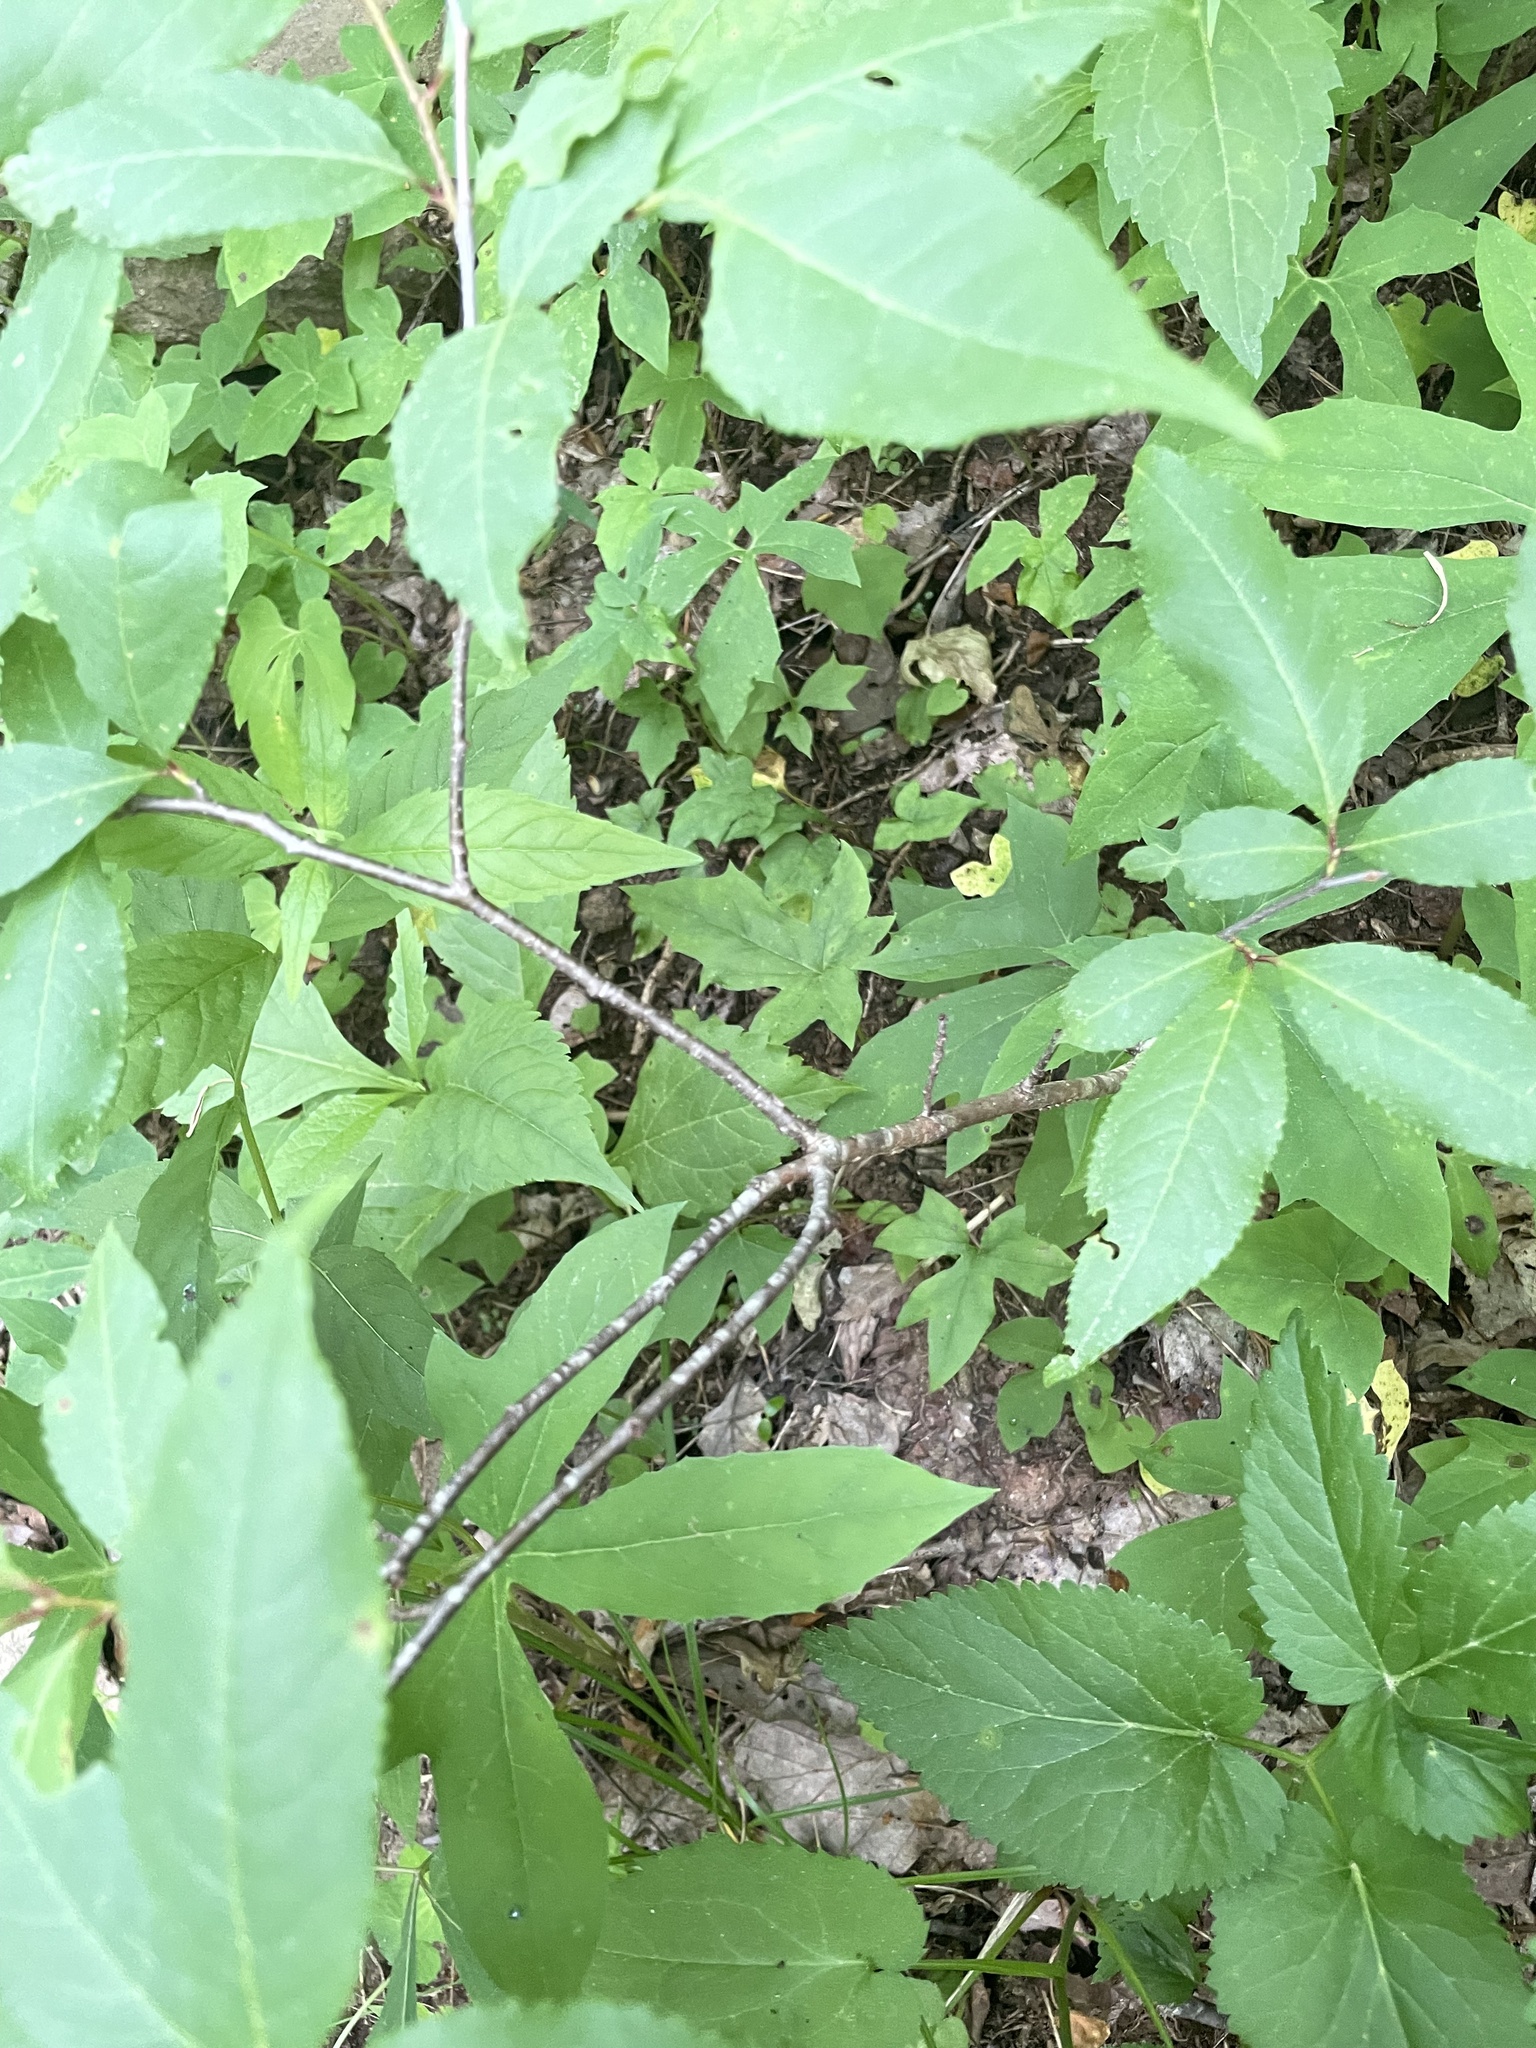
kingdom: Plantae
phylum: Tracheophyta
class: Magnoliopsida
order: Rosales
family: Rosaceae
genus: Prunus
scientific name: Prunus serotina
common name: Black cherry
